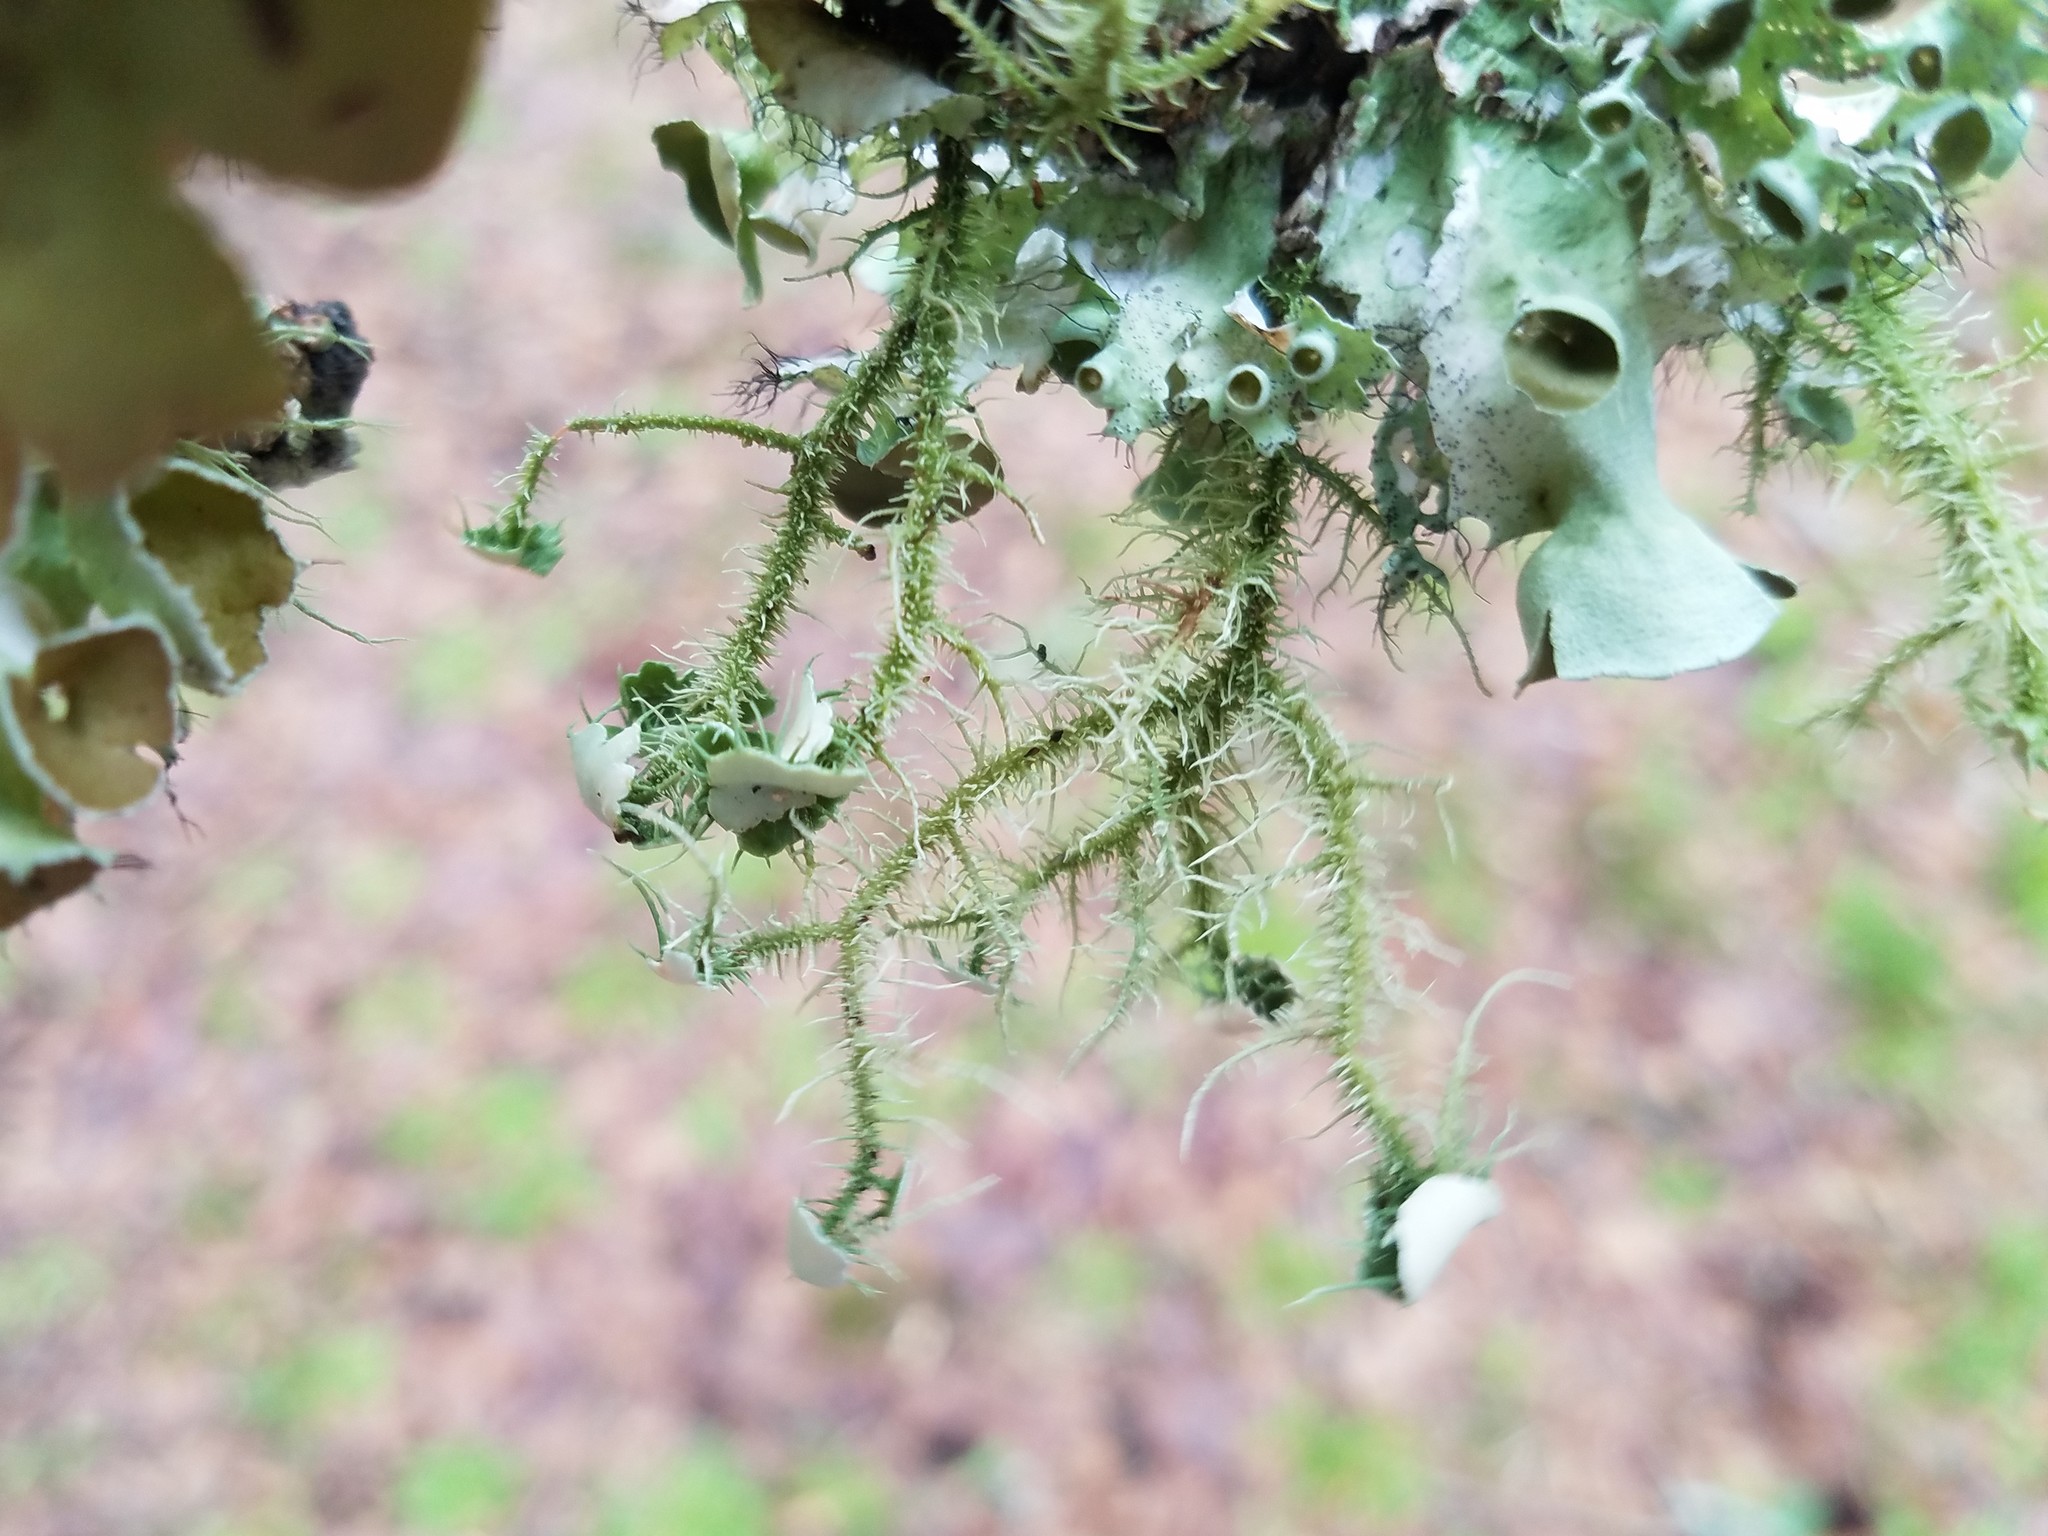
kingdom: Fungi
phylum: Ascomycota
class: Lecanoromycetes
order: Lecanorales
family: Parmeliaceae
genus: Usnea
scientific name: Usnea strigosa
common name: Bushy beard lichen
